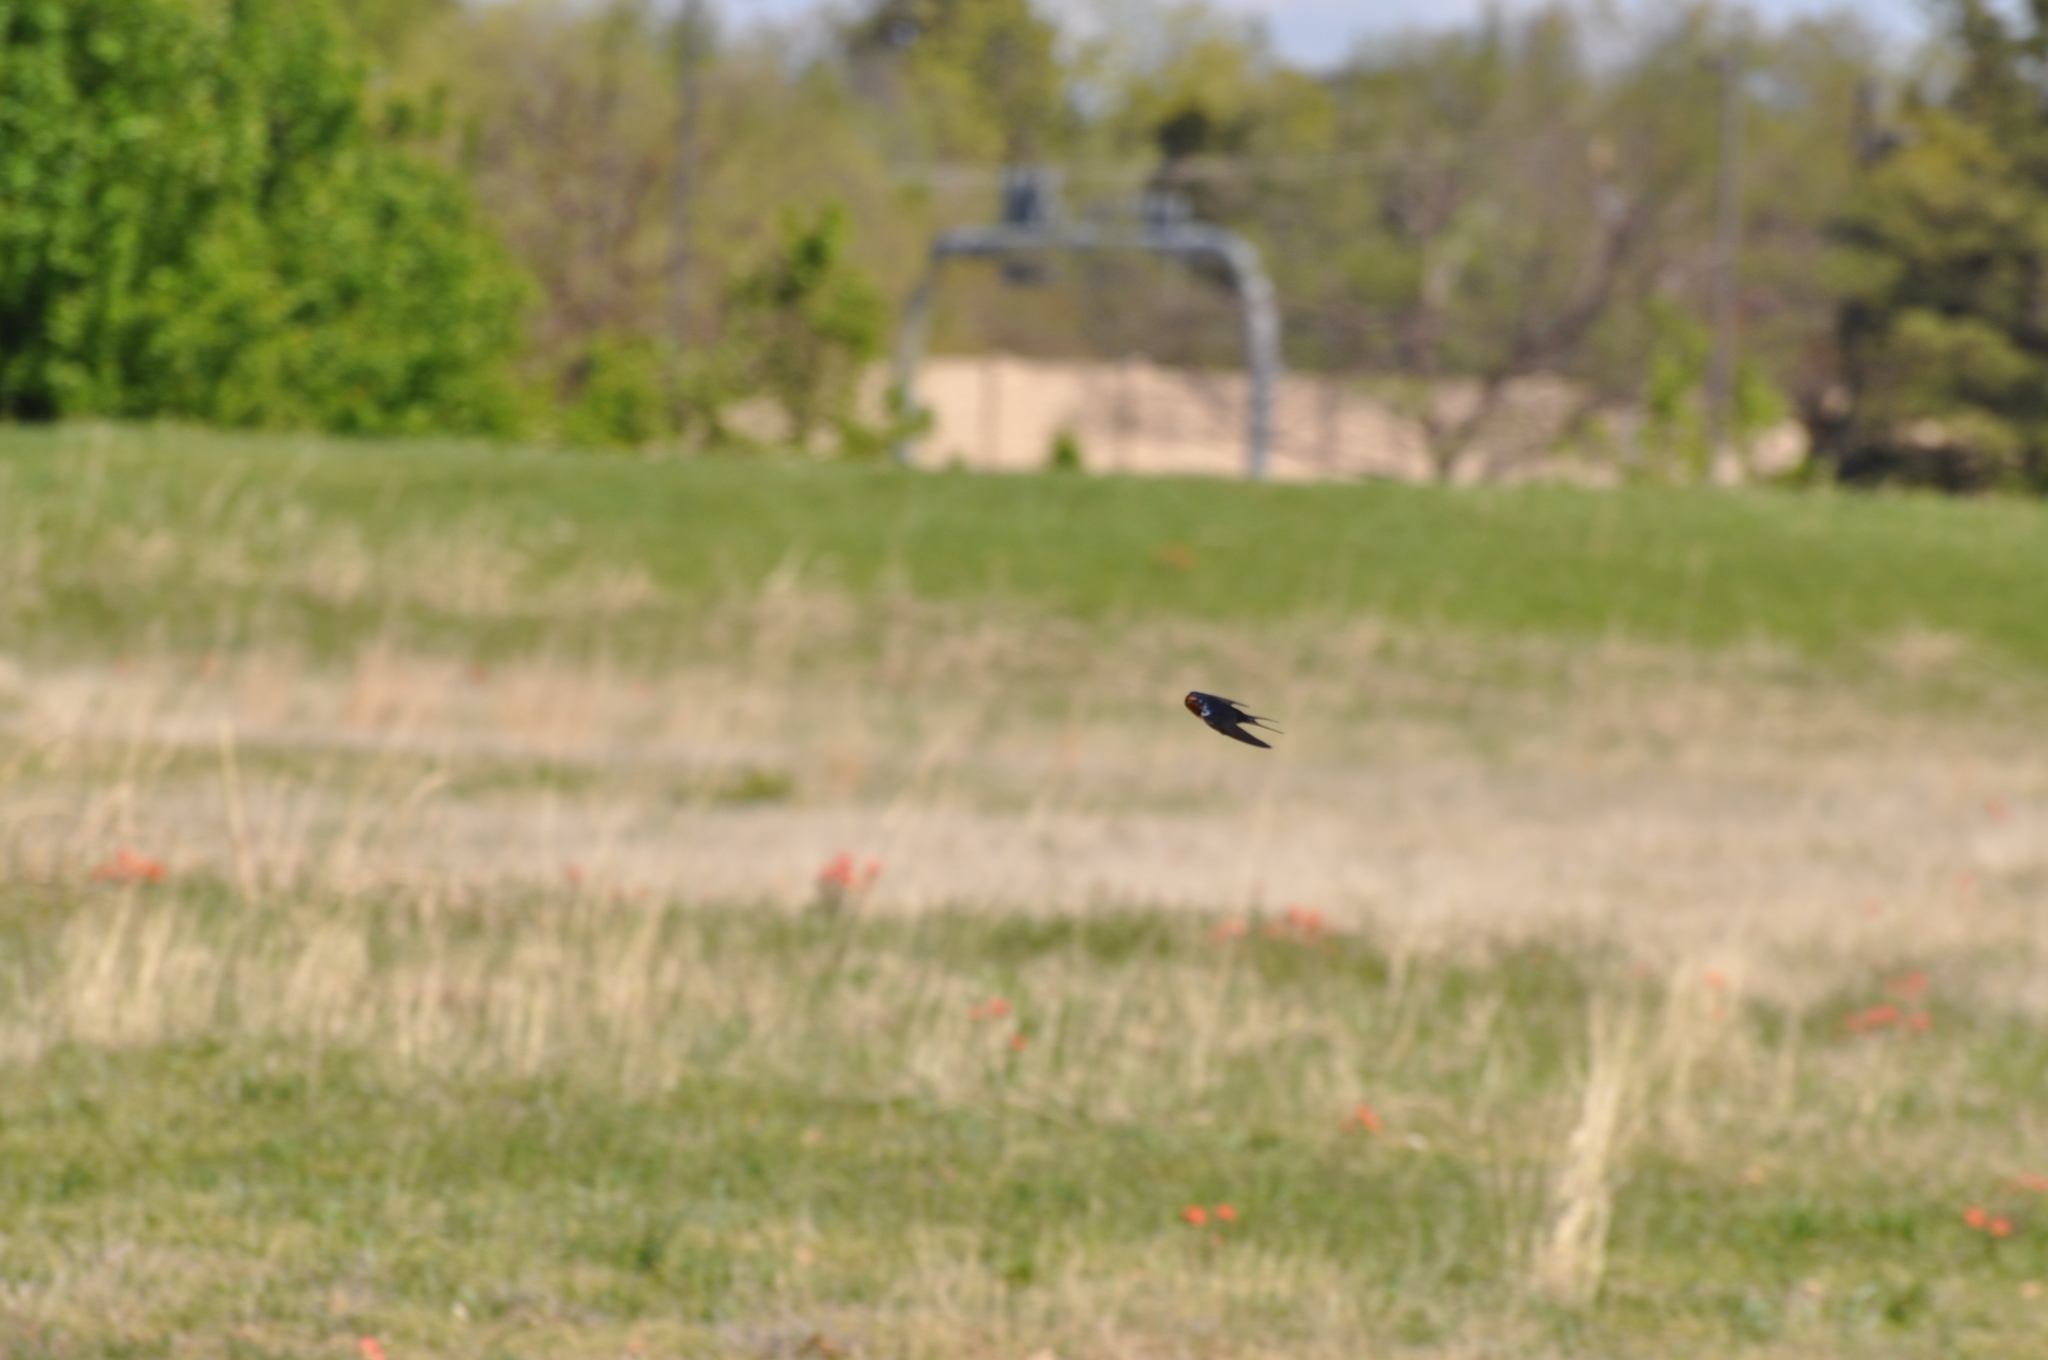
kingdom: Animalia
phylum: Chordata
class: Aves
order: Passeriformes
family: Hirundinidae
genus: Hirundo
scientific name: Hirundo rustica
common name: Barn swallow
